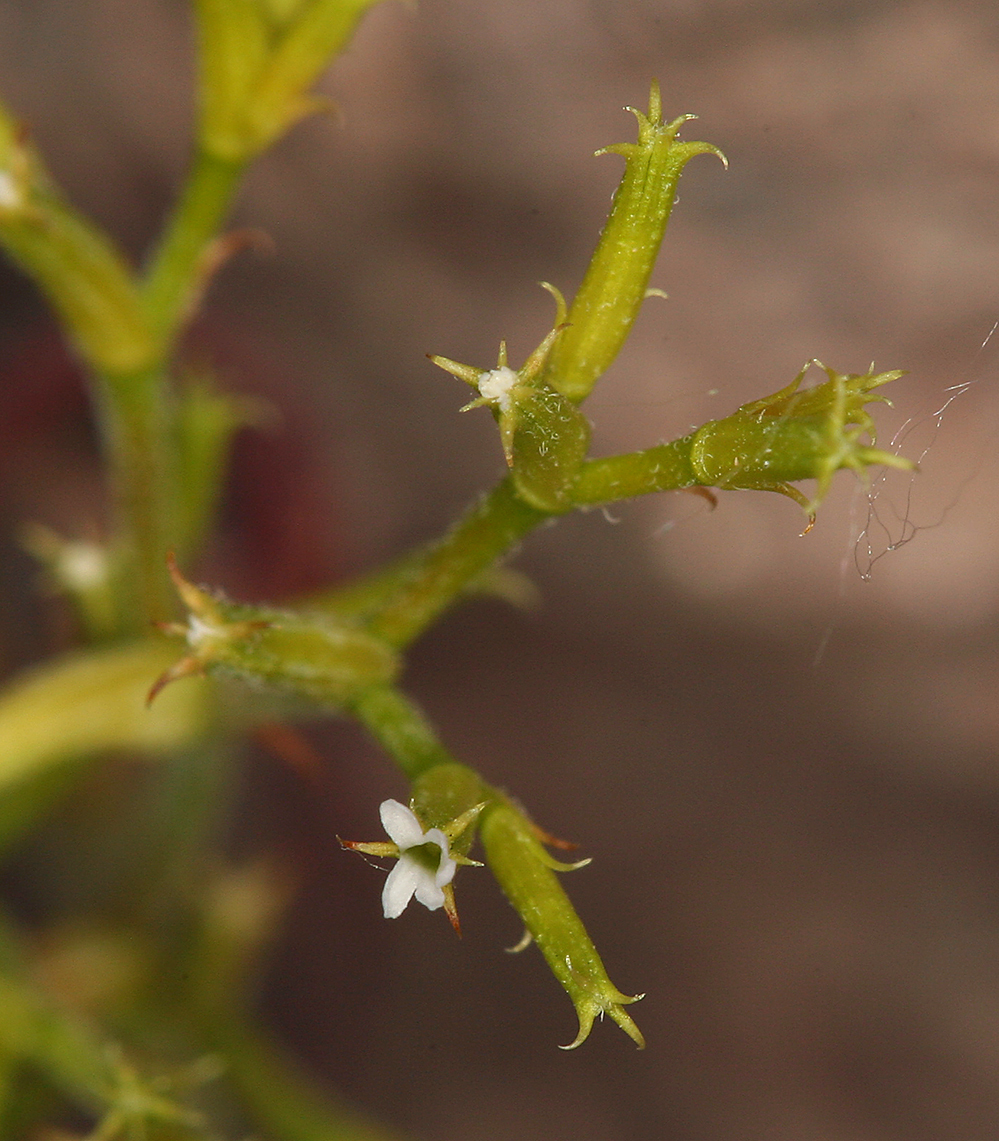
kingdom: Plantae
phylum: Tracheophyta
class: Magnoliopsida
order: Caryophyllales
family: Polygonaceae
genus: Chorizanthe
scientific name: Chorizanthe brevicornu
